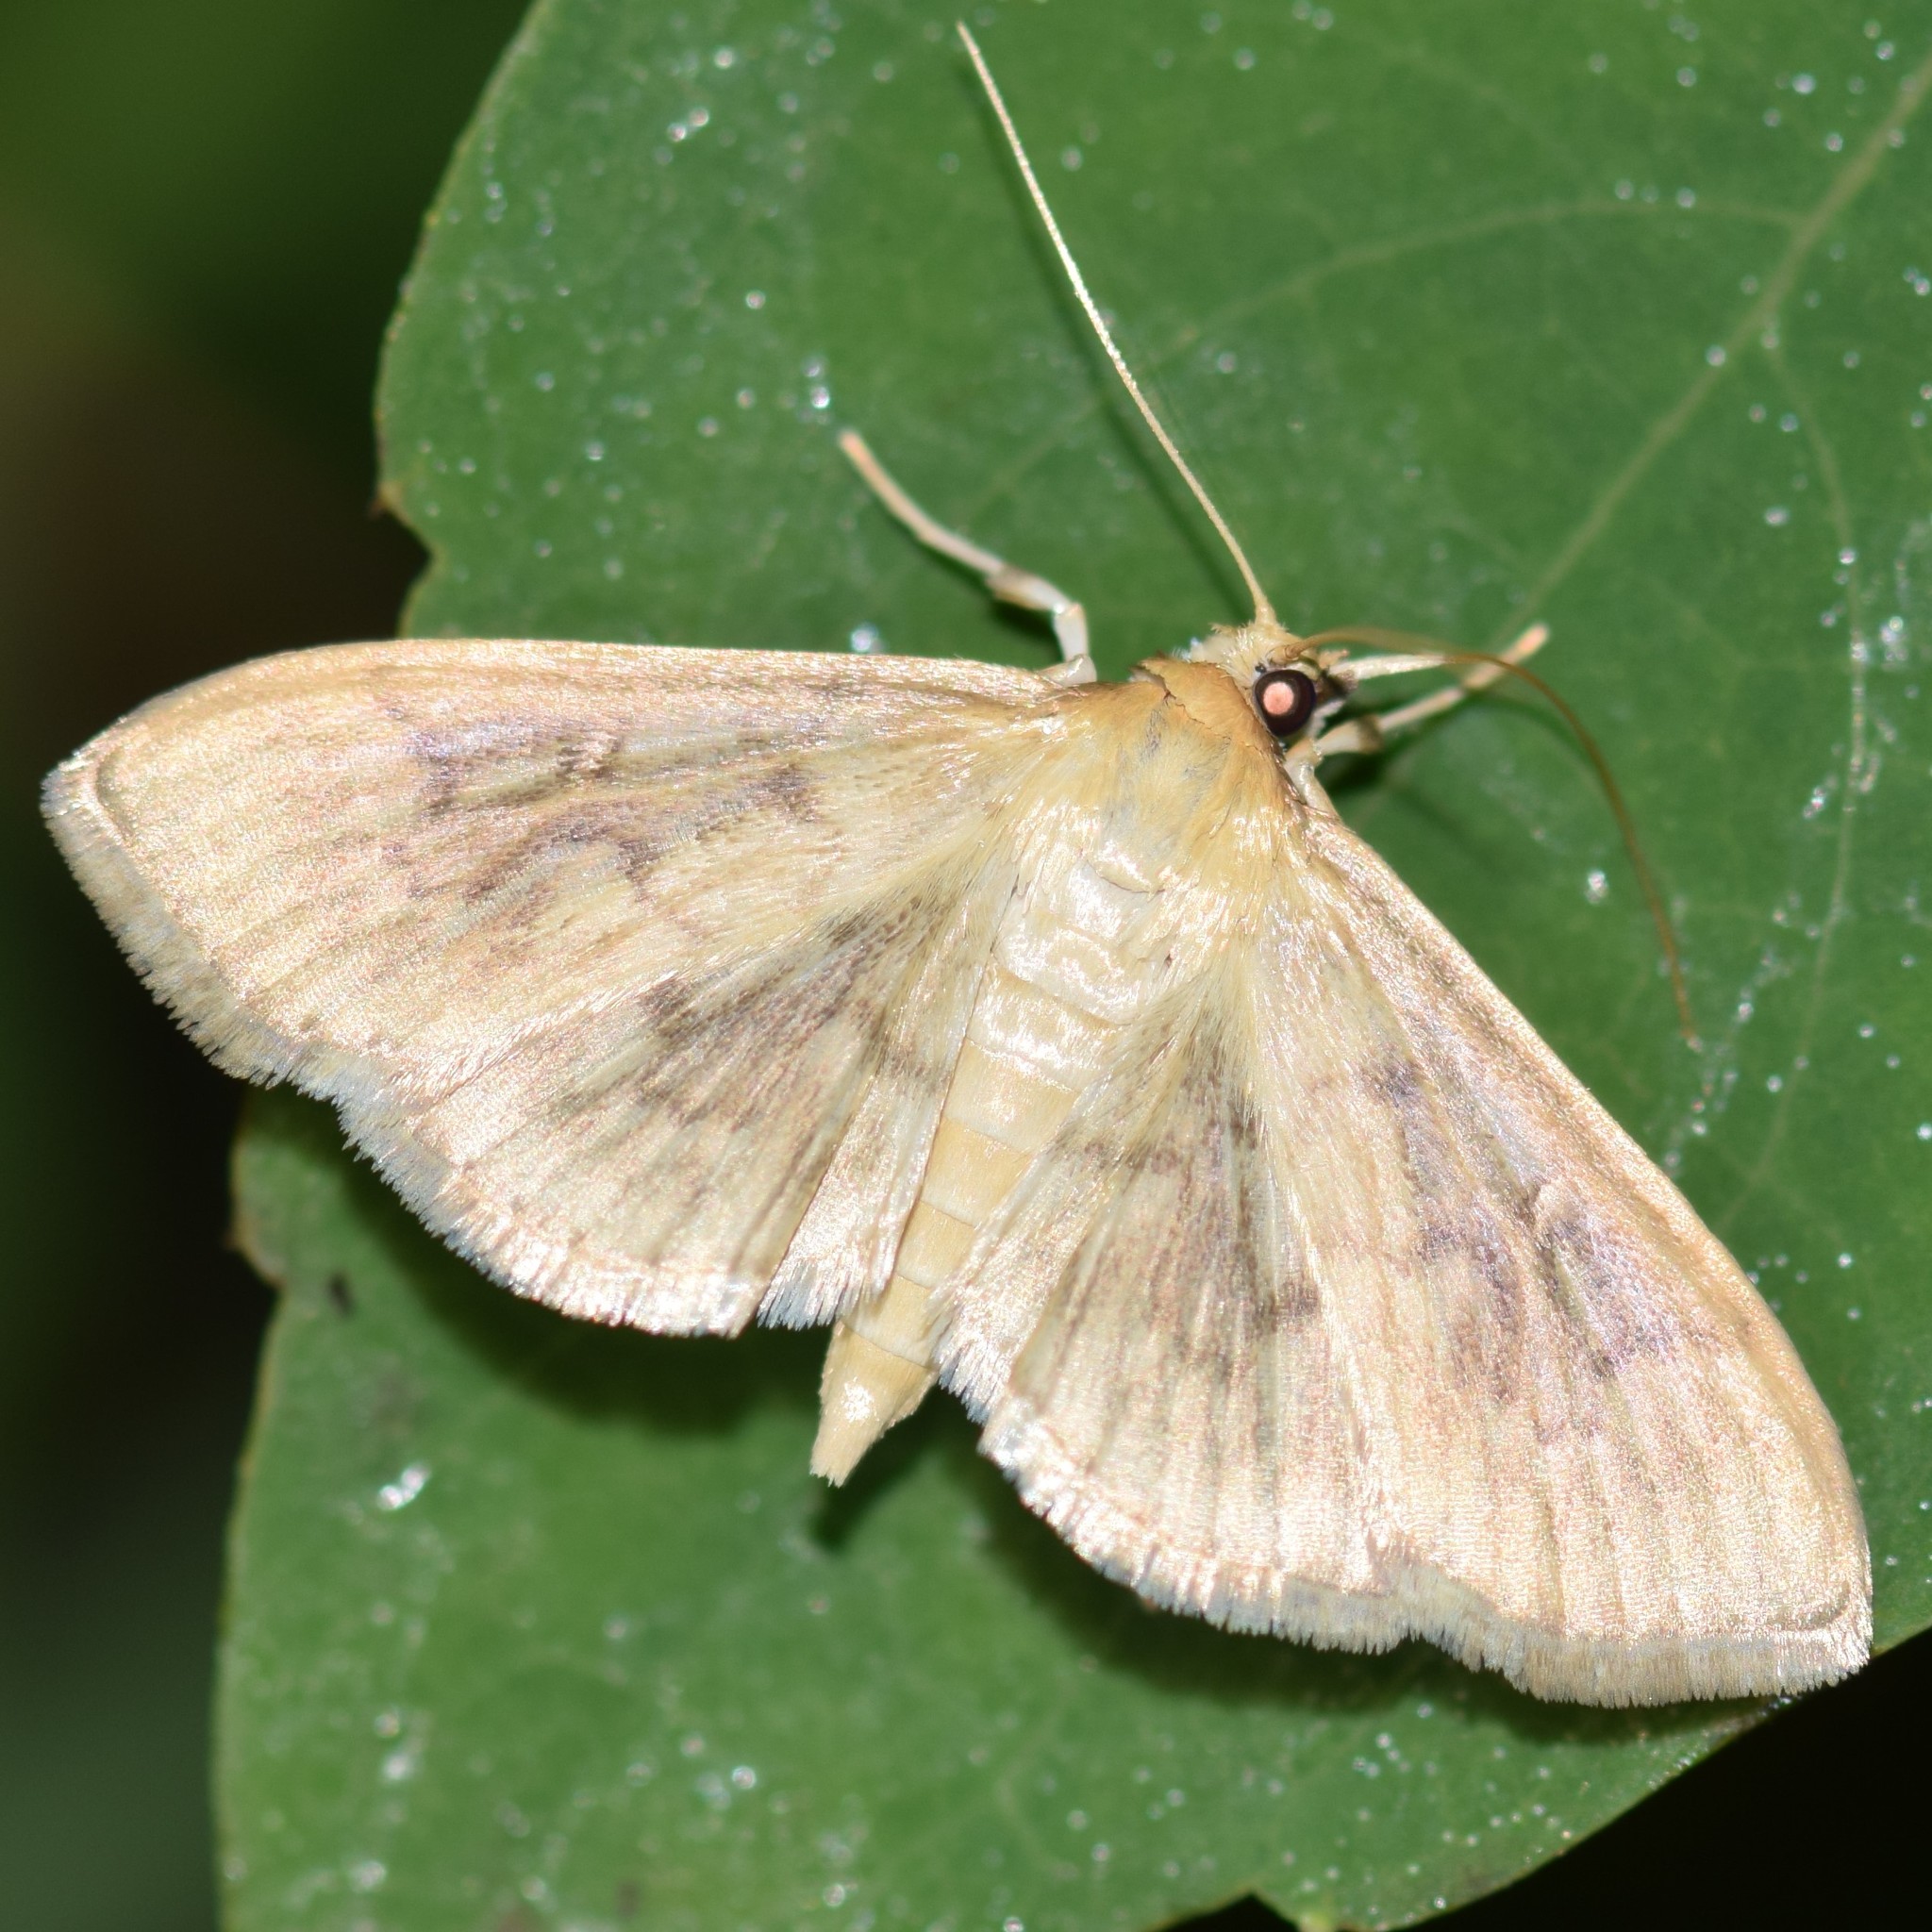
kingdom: Animalia
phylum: Arthropoda
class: Insecta
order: Lepidoptera
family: Crambidae
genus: Pleuroptya
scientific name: Pleuroptya silicalis
